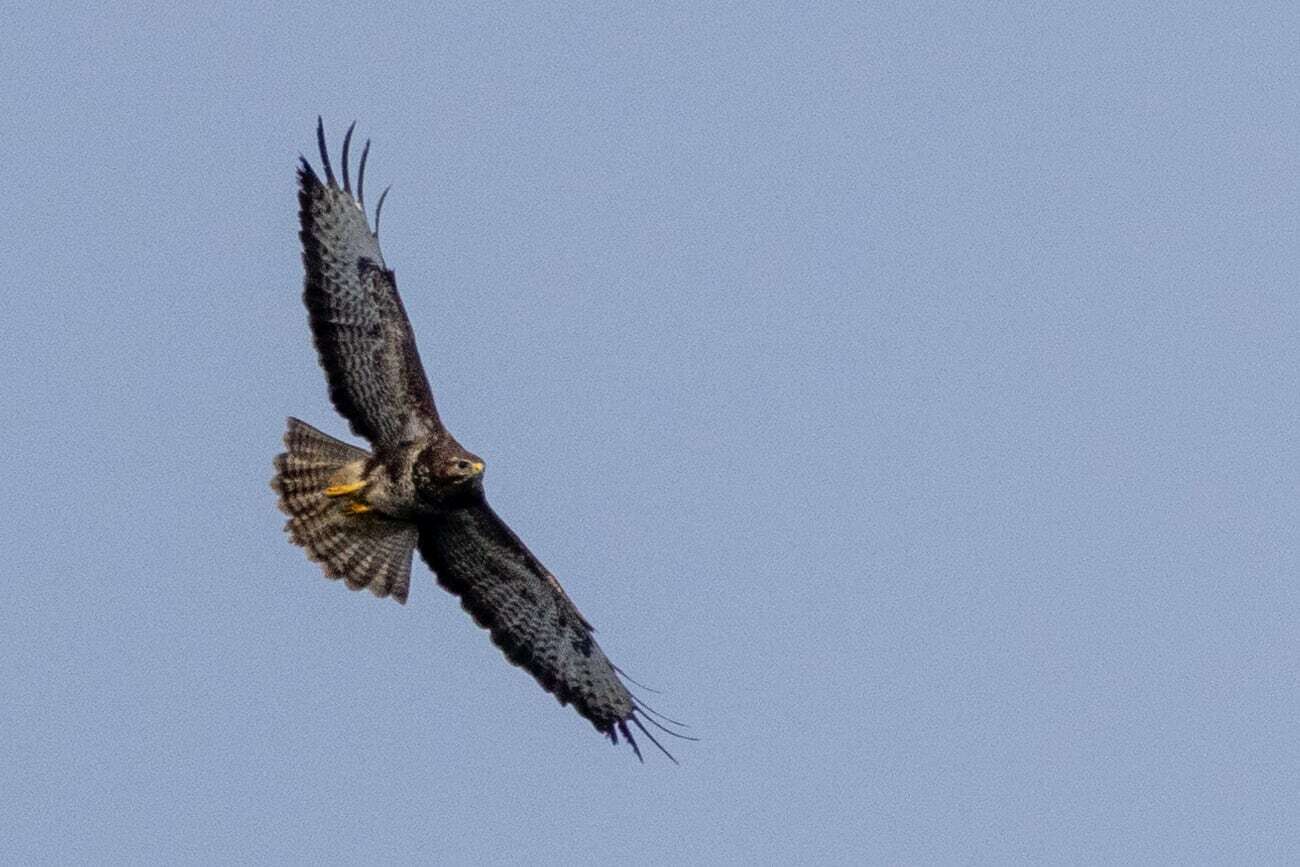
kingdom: Animalia
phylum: Chordata
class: Aves
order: Accipitriformes
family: Accipitridae
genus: Buteo
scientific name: Buteo buteo
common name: Common buzzard
